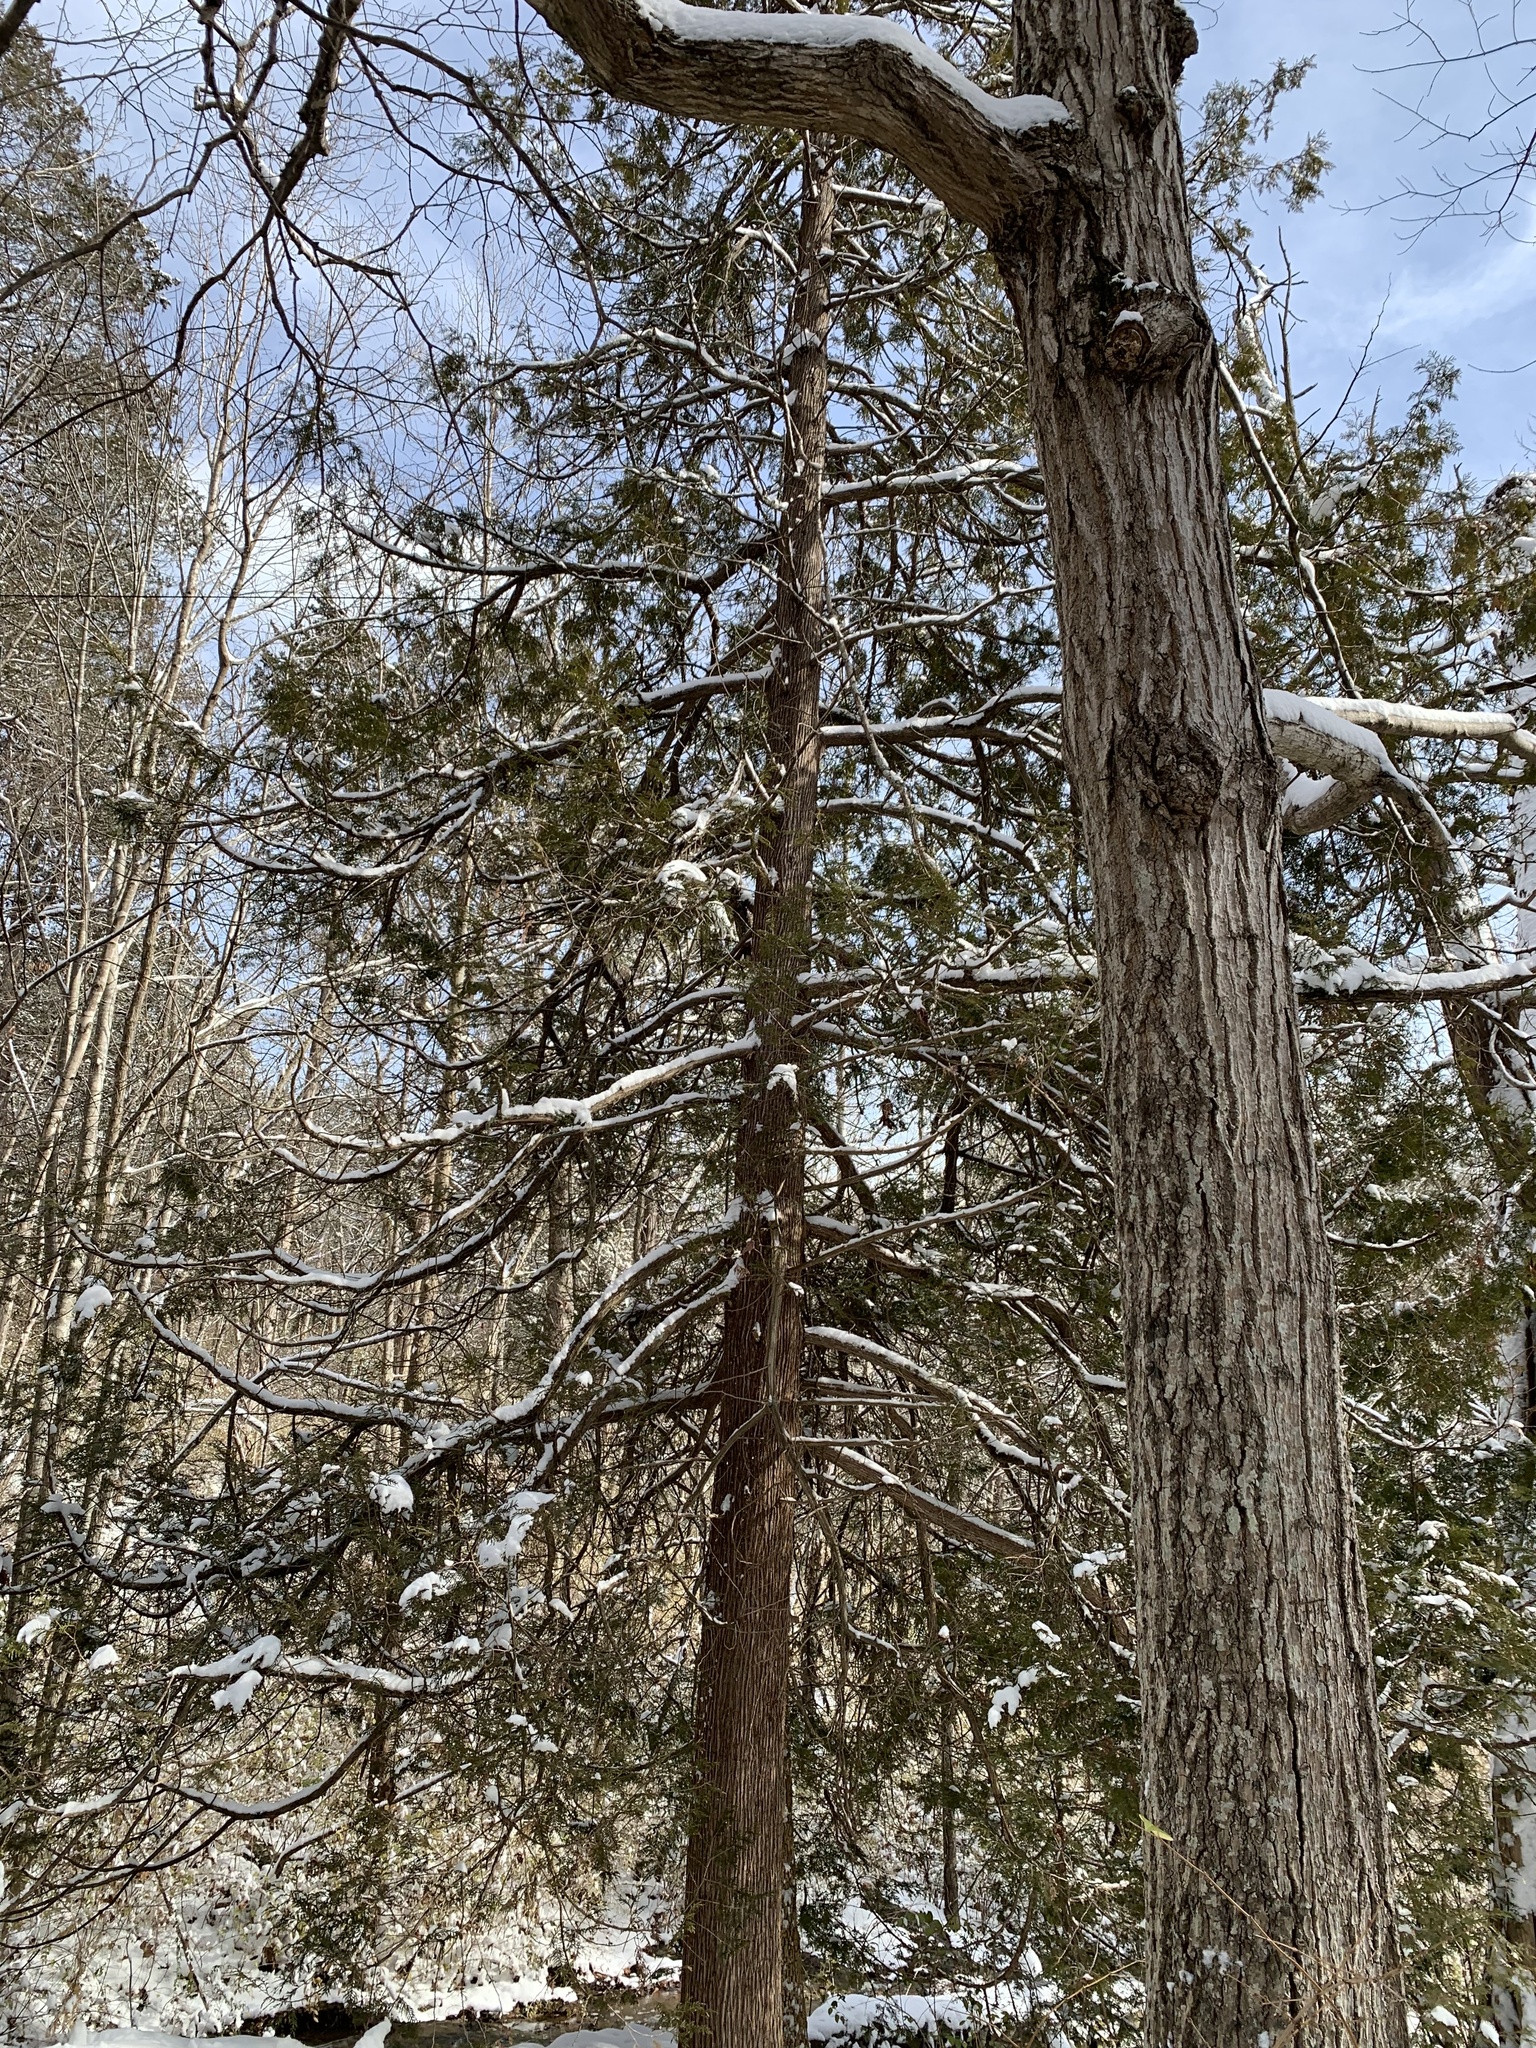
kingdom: Plantae
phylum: Tracheophyta
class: Pinopsida
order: Pinales
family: Cupressaceae
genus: Thuja
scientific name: Thuja occidentalis
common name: Northern white-cedar
